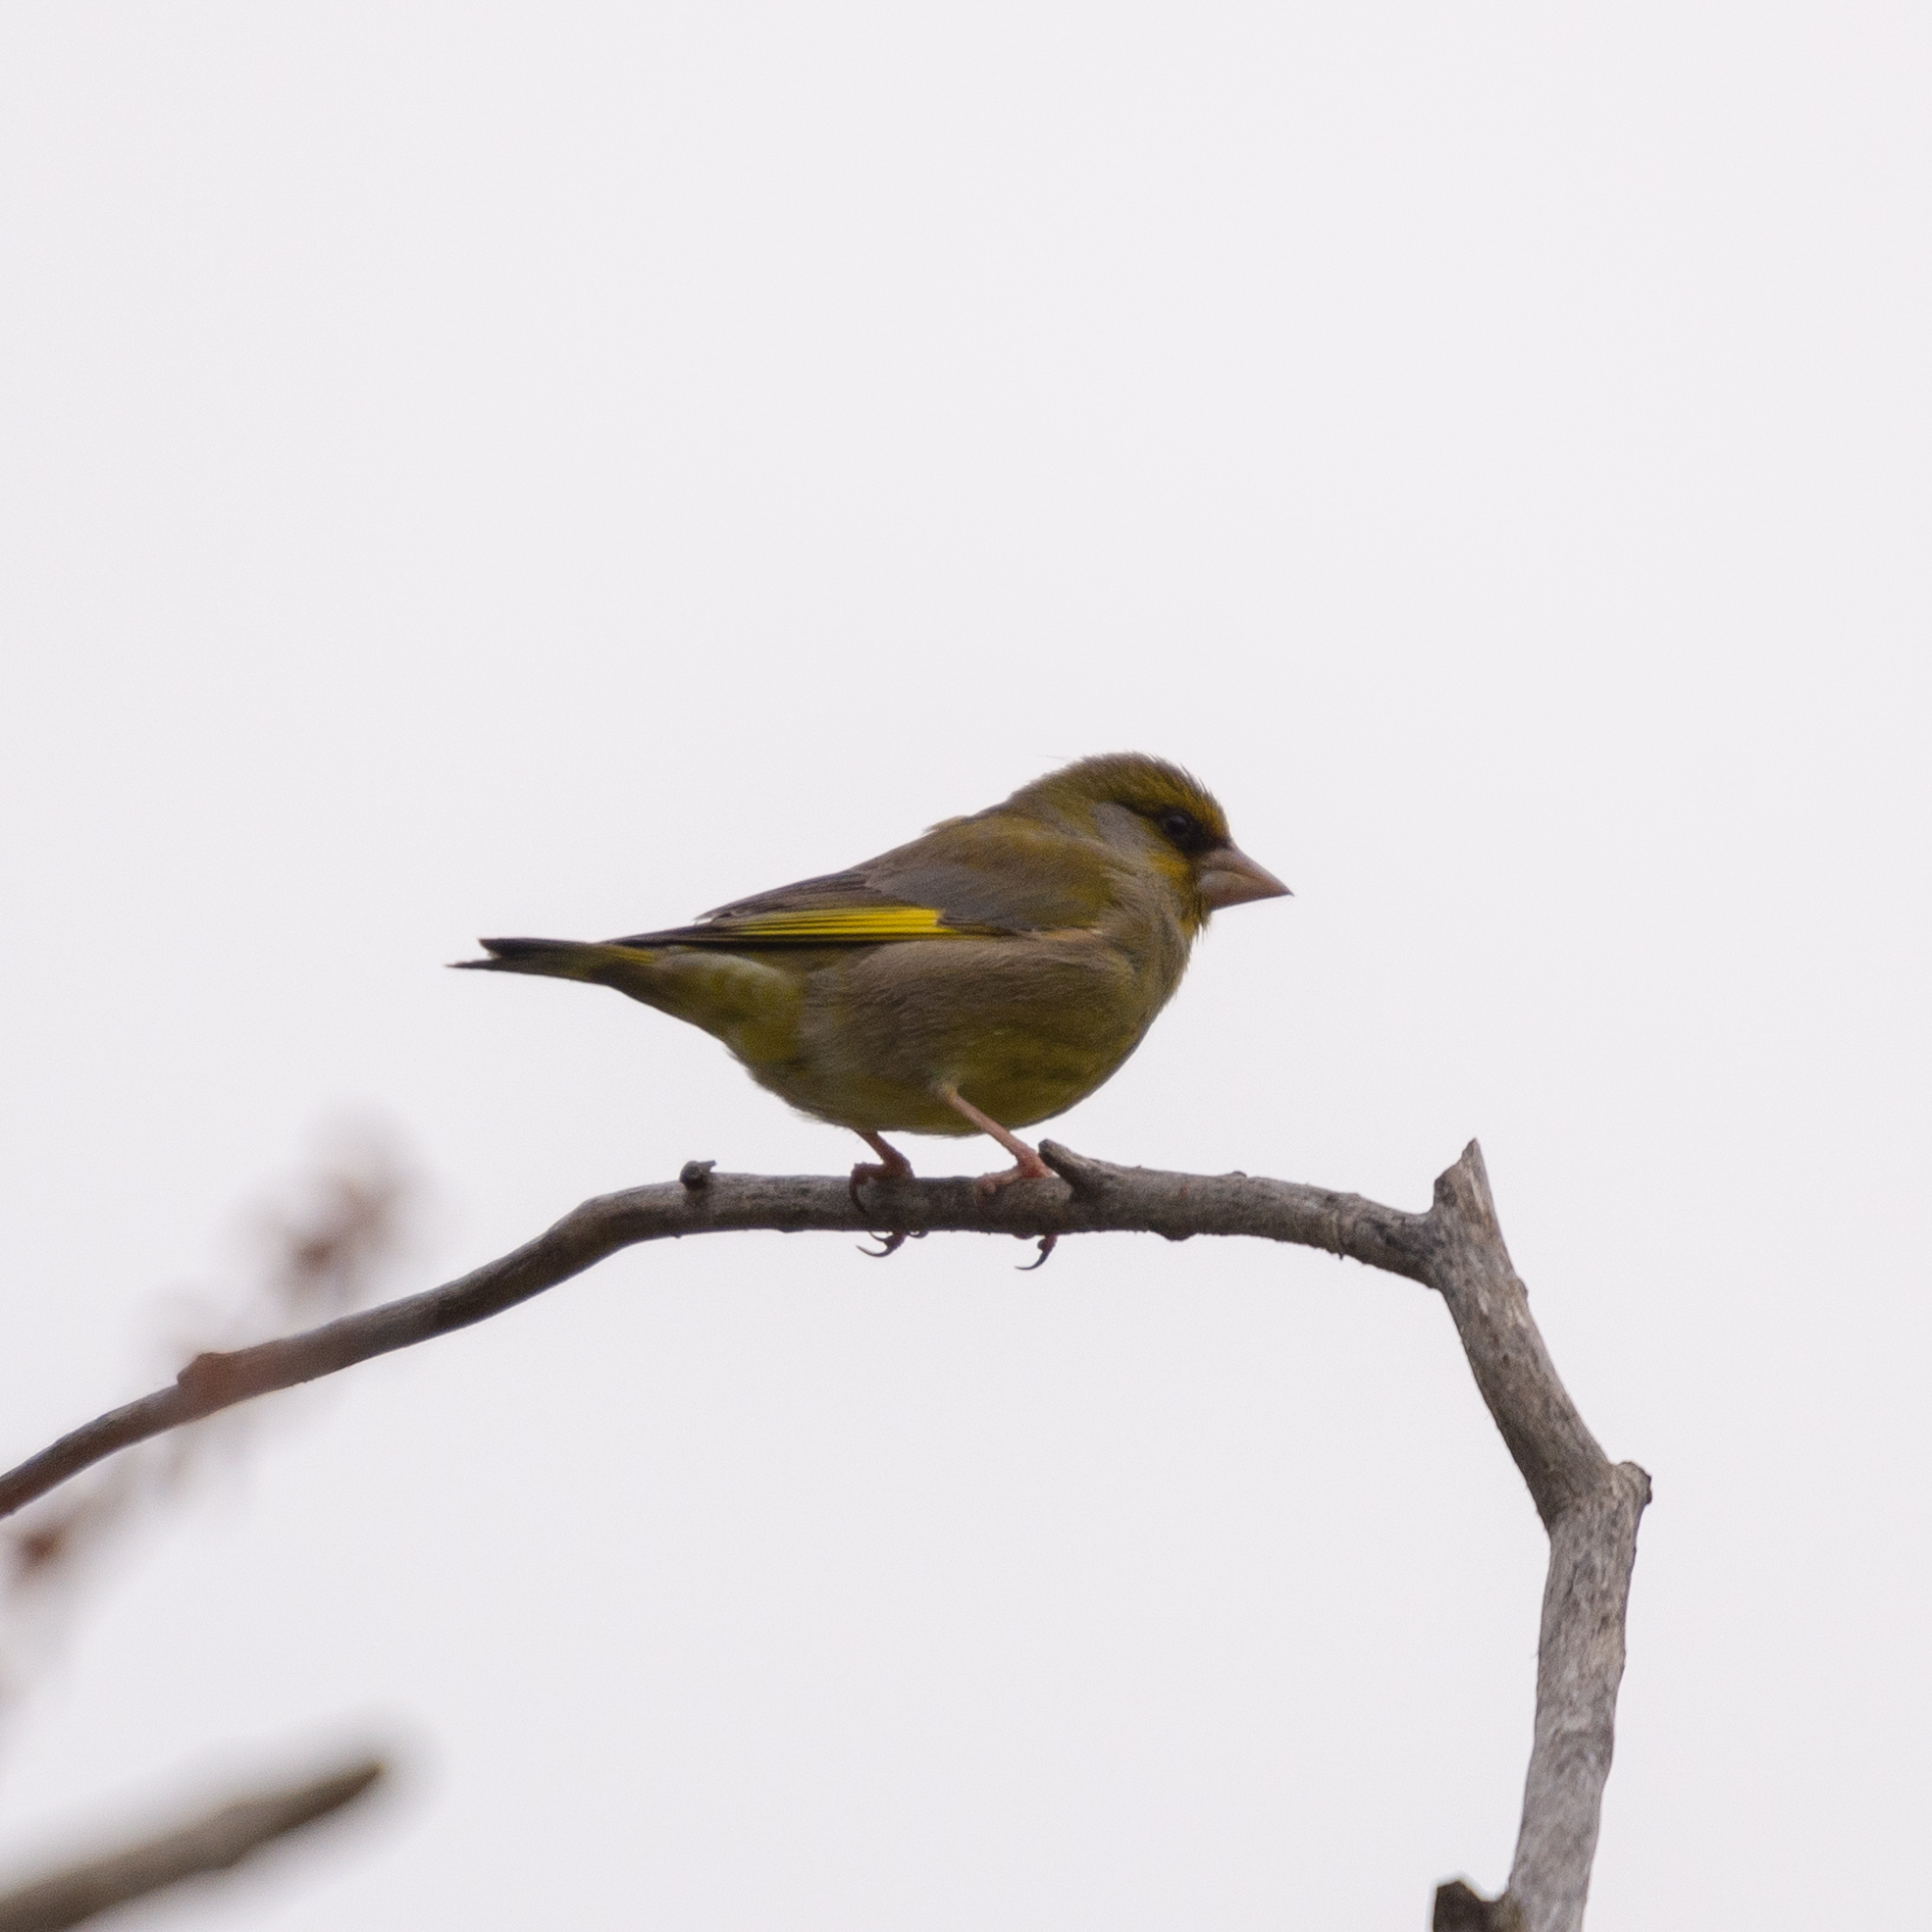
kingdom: Plantae
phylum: Tracheophyta
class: Liliopsida
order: Poales
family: Poaceae
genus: Chloris
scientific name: Chloris chloris
